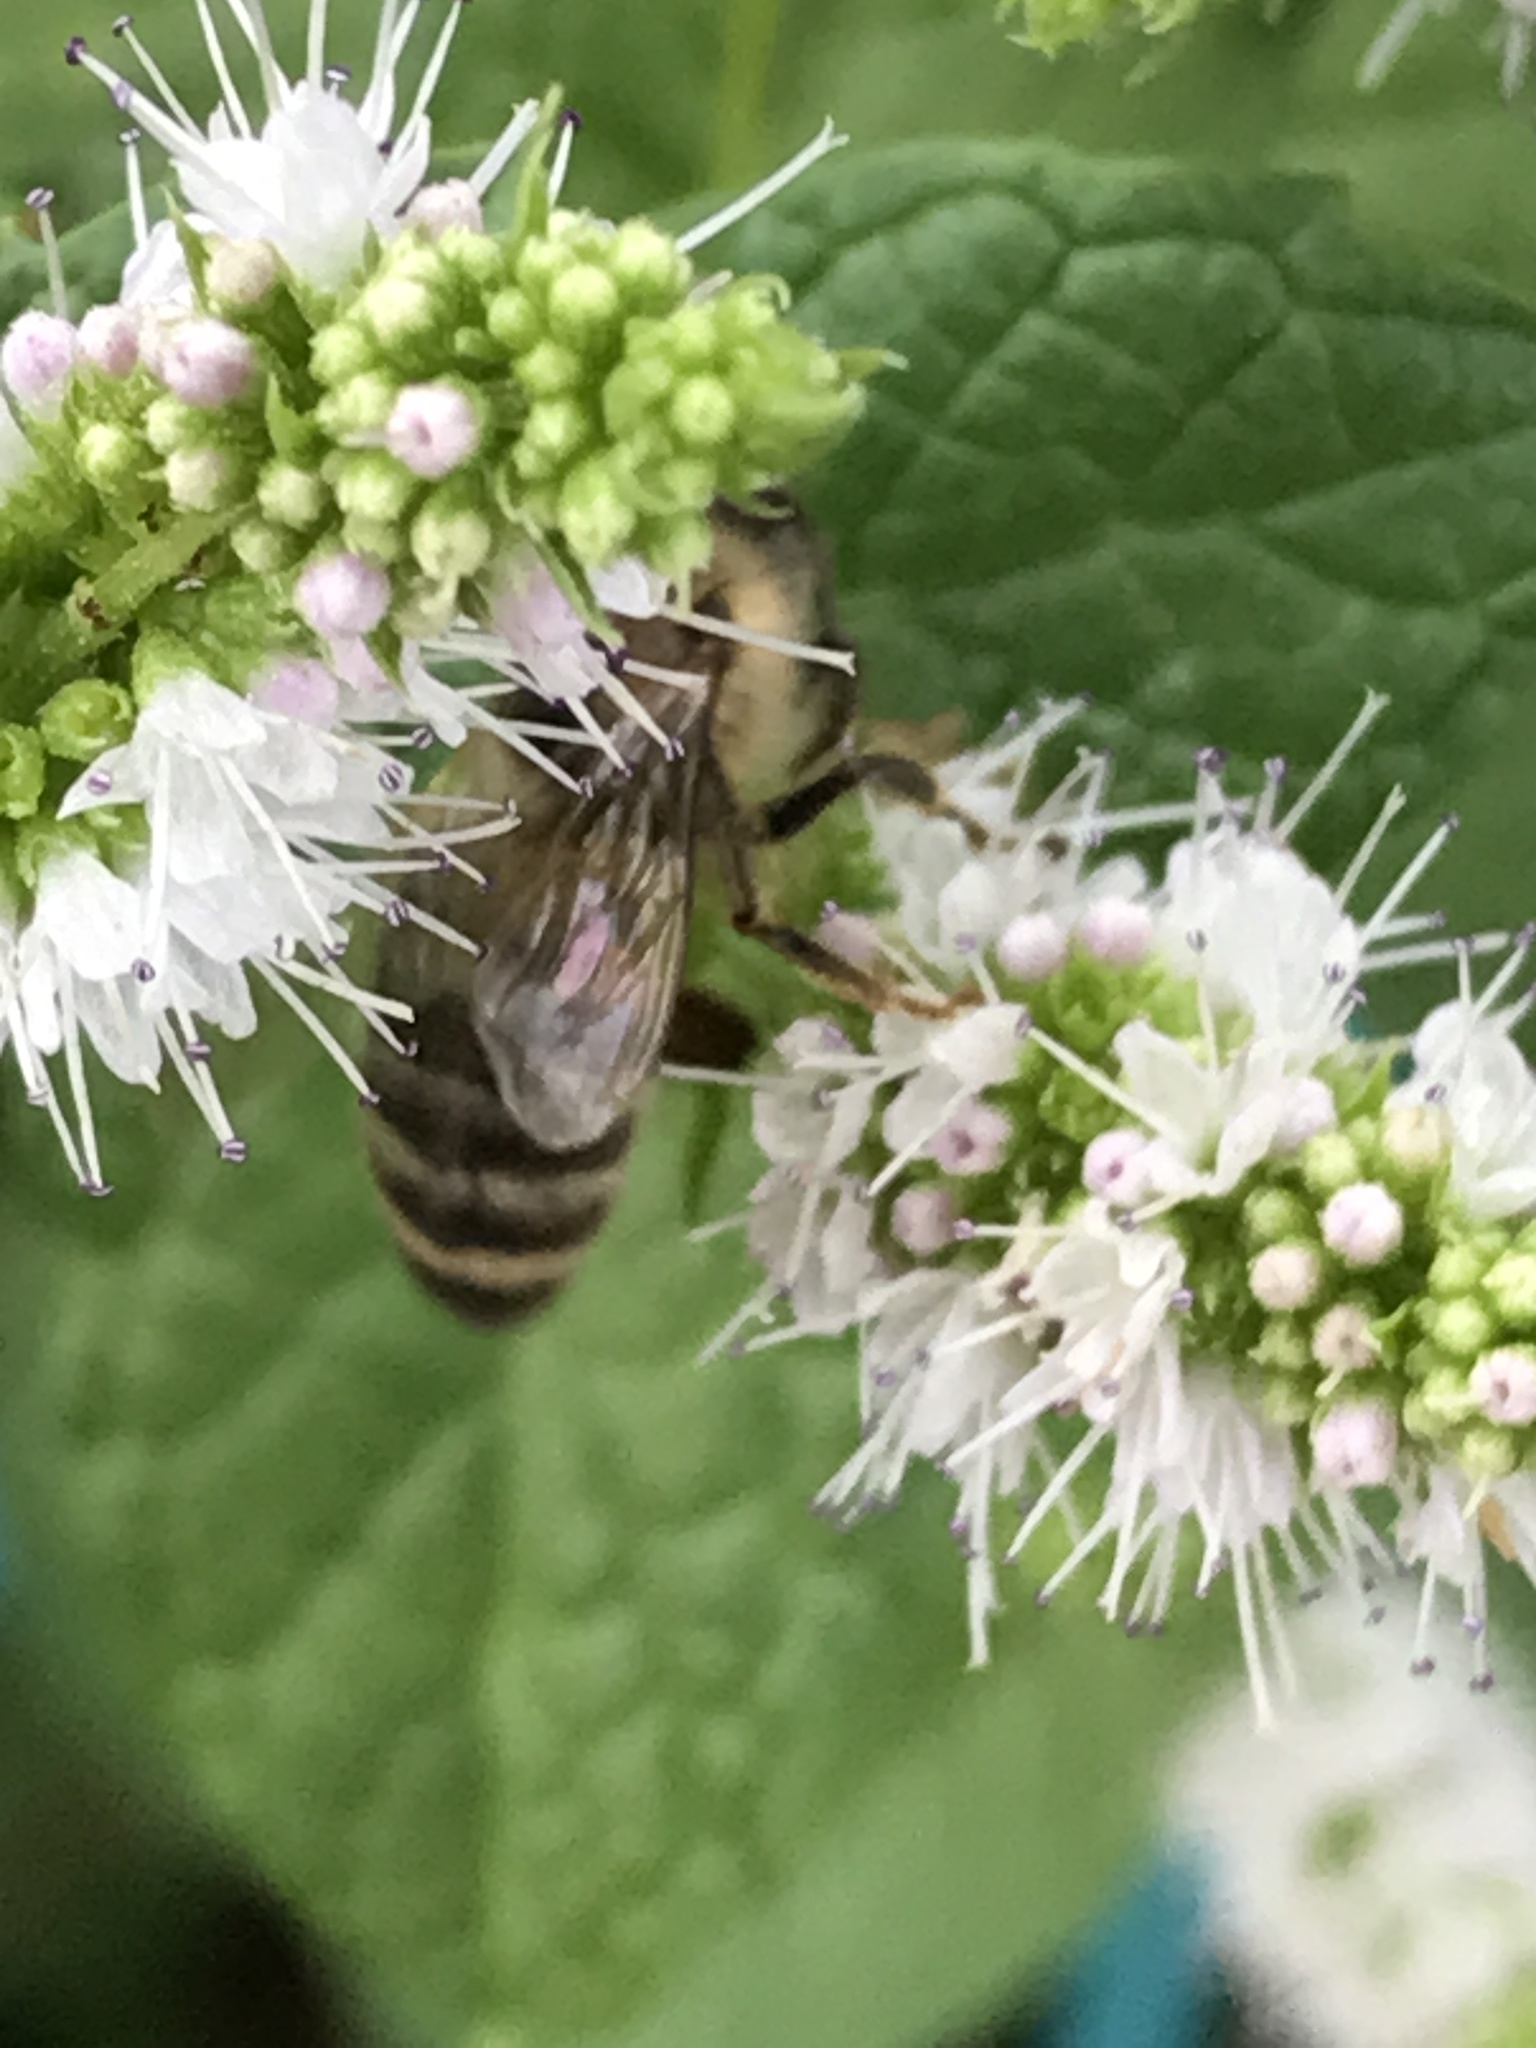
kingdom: Animalia
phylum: Arthropoda
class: Insecta
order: Hymenoptera
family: Apidae
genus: Apis
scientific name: Apis mellifera
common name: Honey bee
